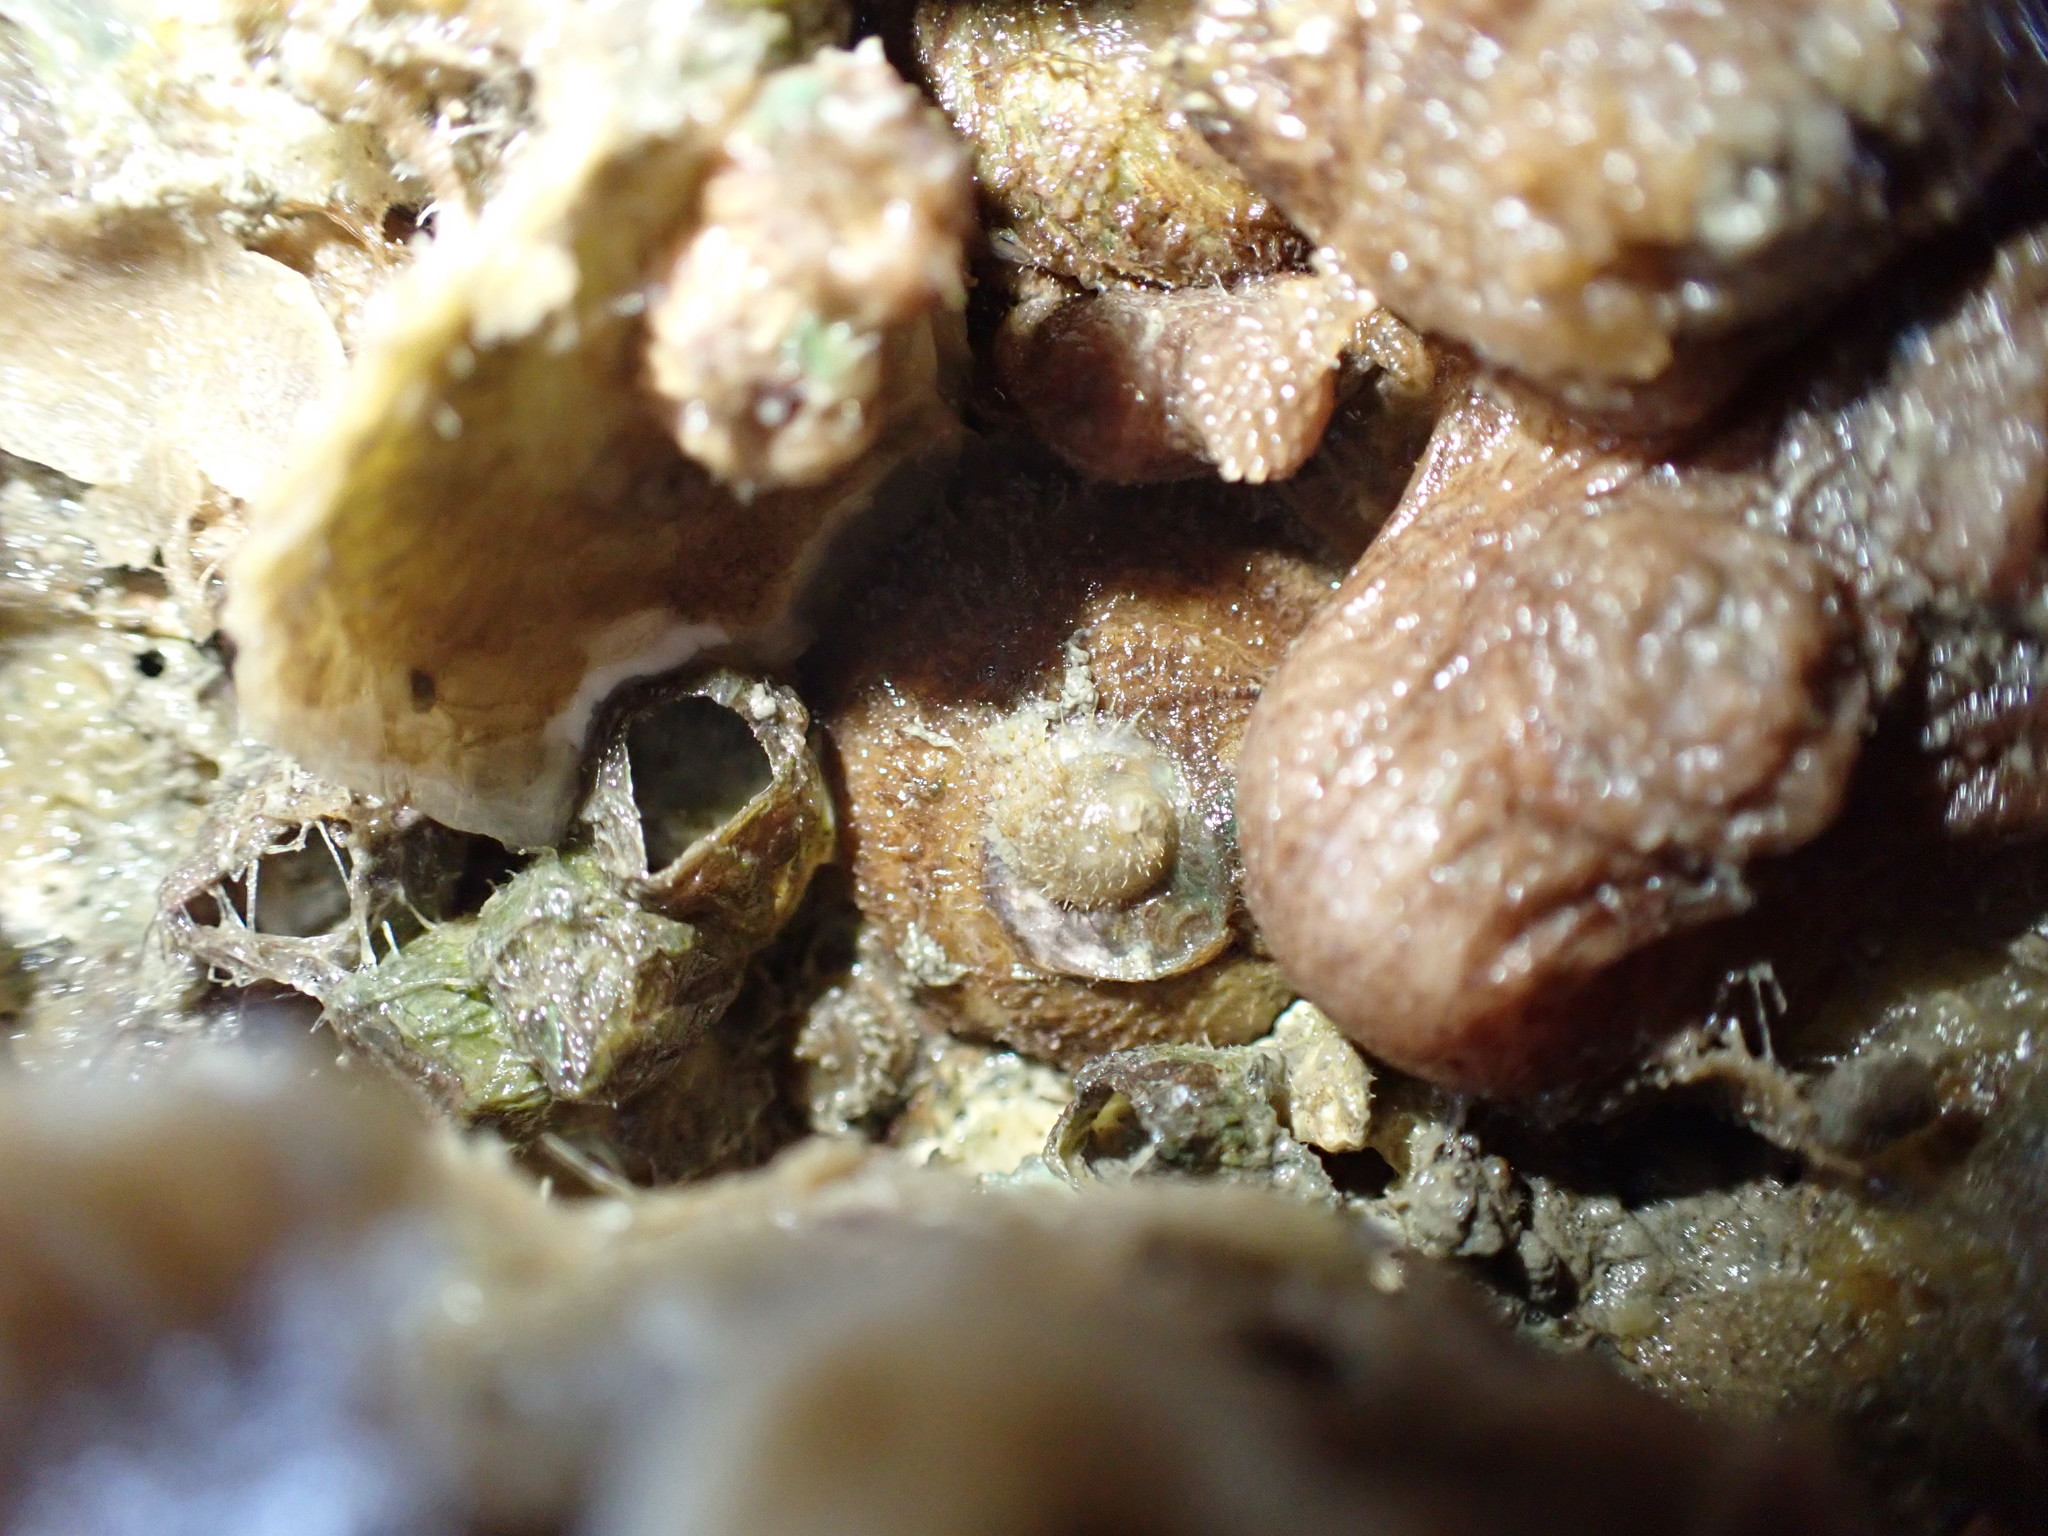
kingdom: Animalia
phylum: Mollusca
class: Gastropoda
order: Littorinimorpha
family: Calyptraeidae
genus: Sigapatella
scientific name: Sigapatella novaezelandiae
